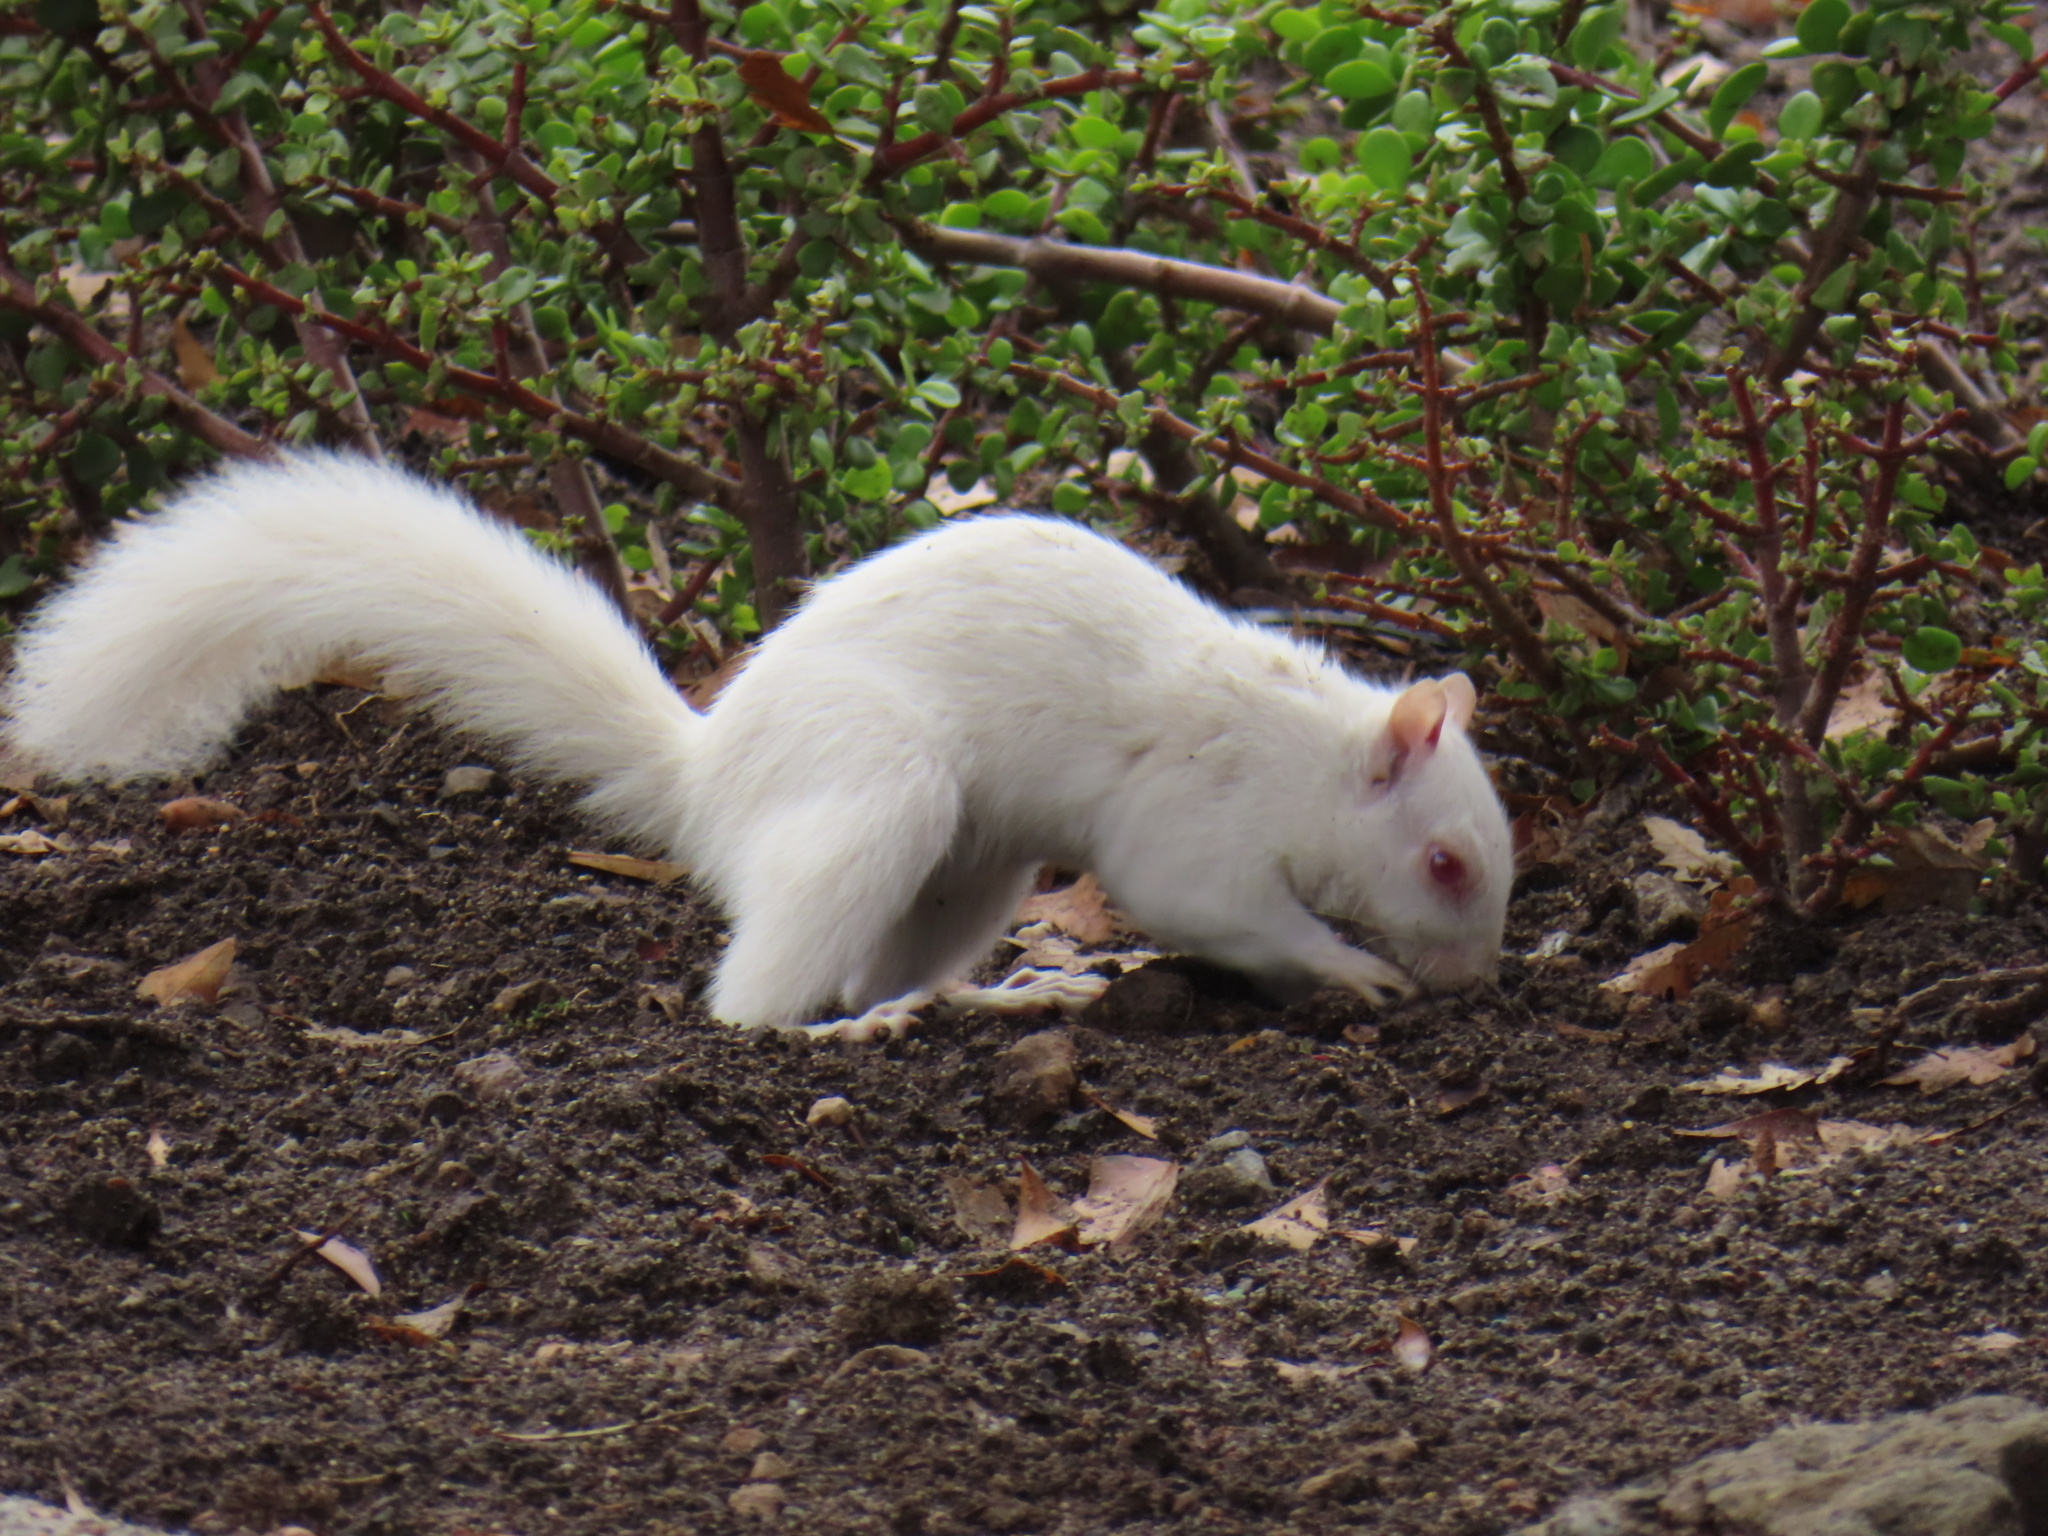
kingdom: Animalia
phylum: Chordata
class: Mammalia
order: Rodentia
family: Sciuridae
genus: Sciurus
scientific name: Sciurus carolinensis
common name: Eastern gray squirrel
